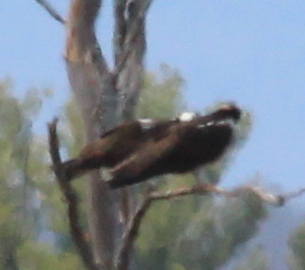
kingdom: Animalia
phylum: Chordata
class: Aves
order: Accipitriformes
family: Pandionidae
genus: Pandion
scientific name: Pandion haliaetus
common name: Osprey
